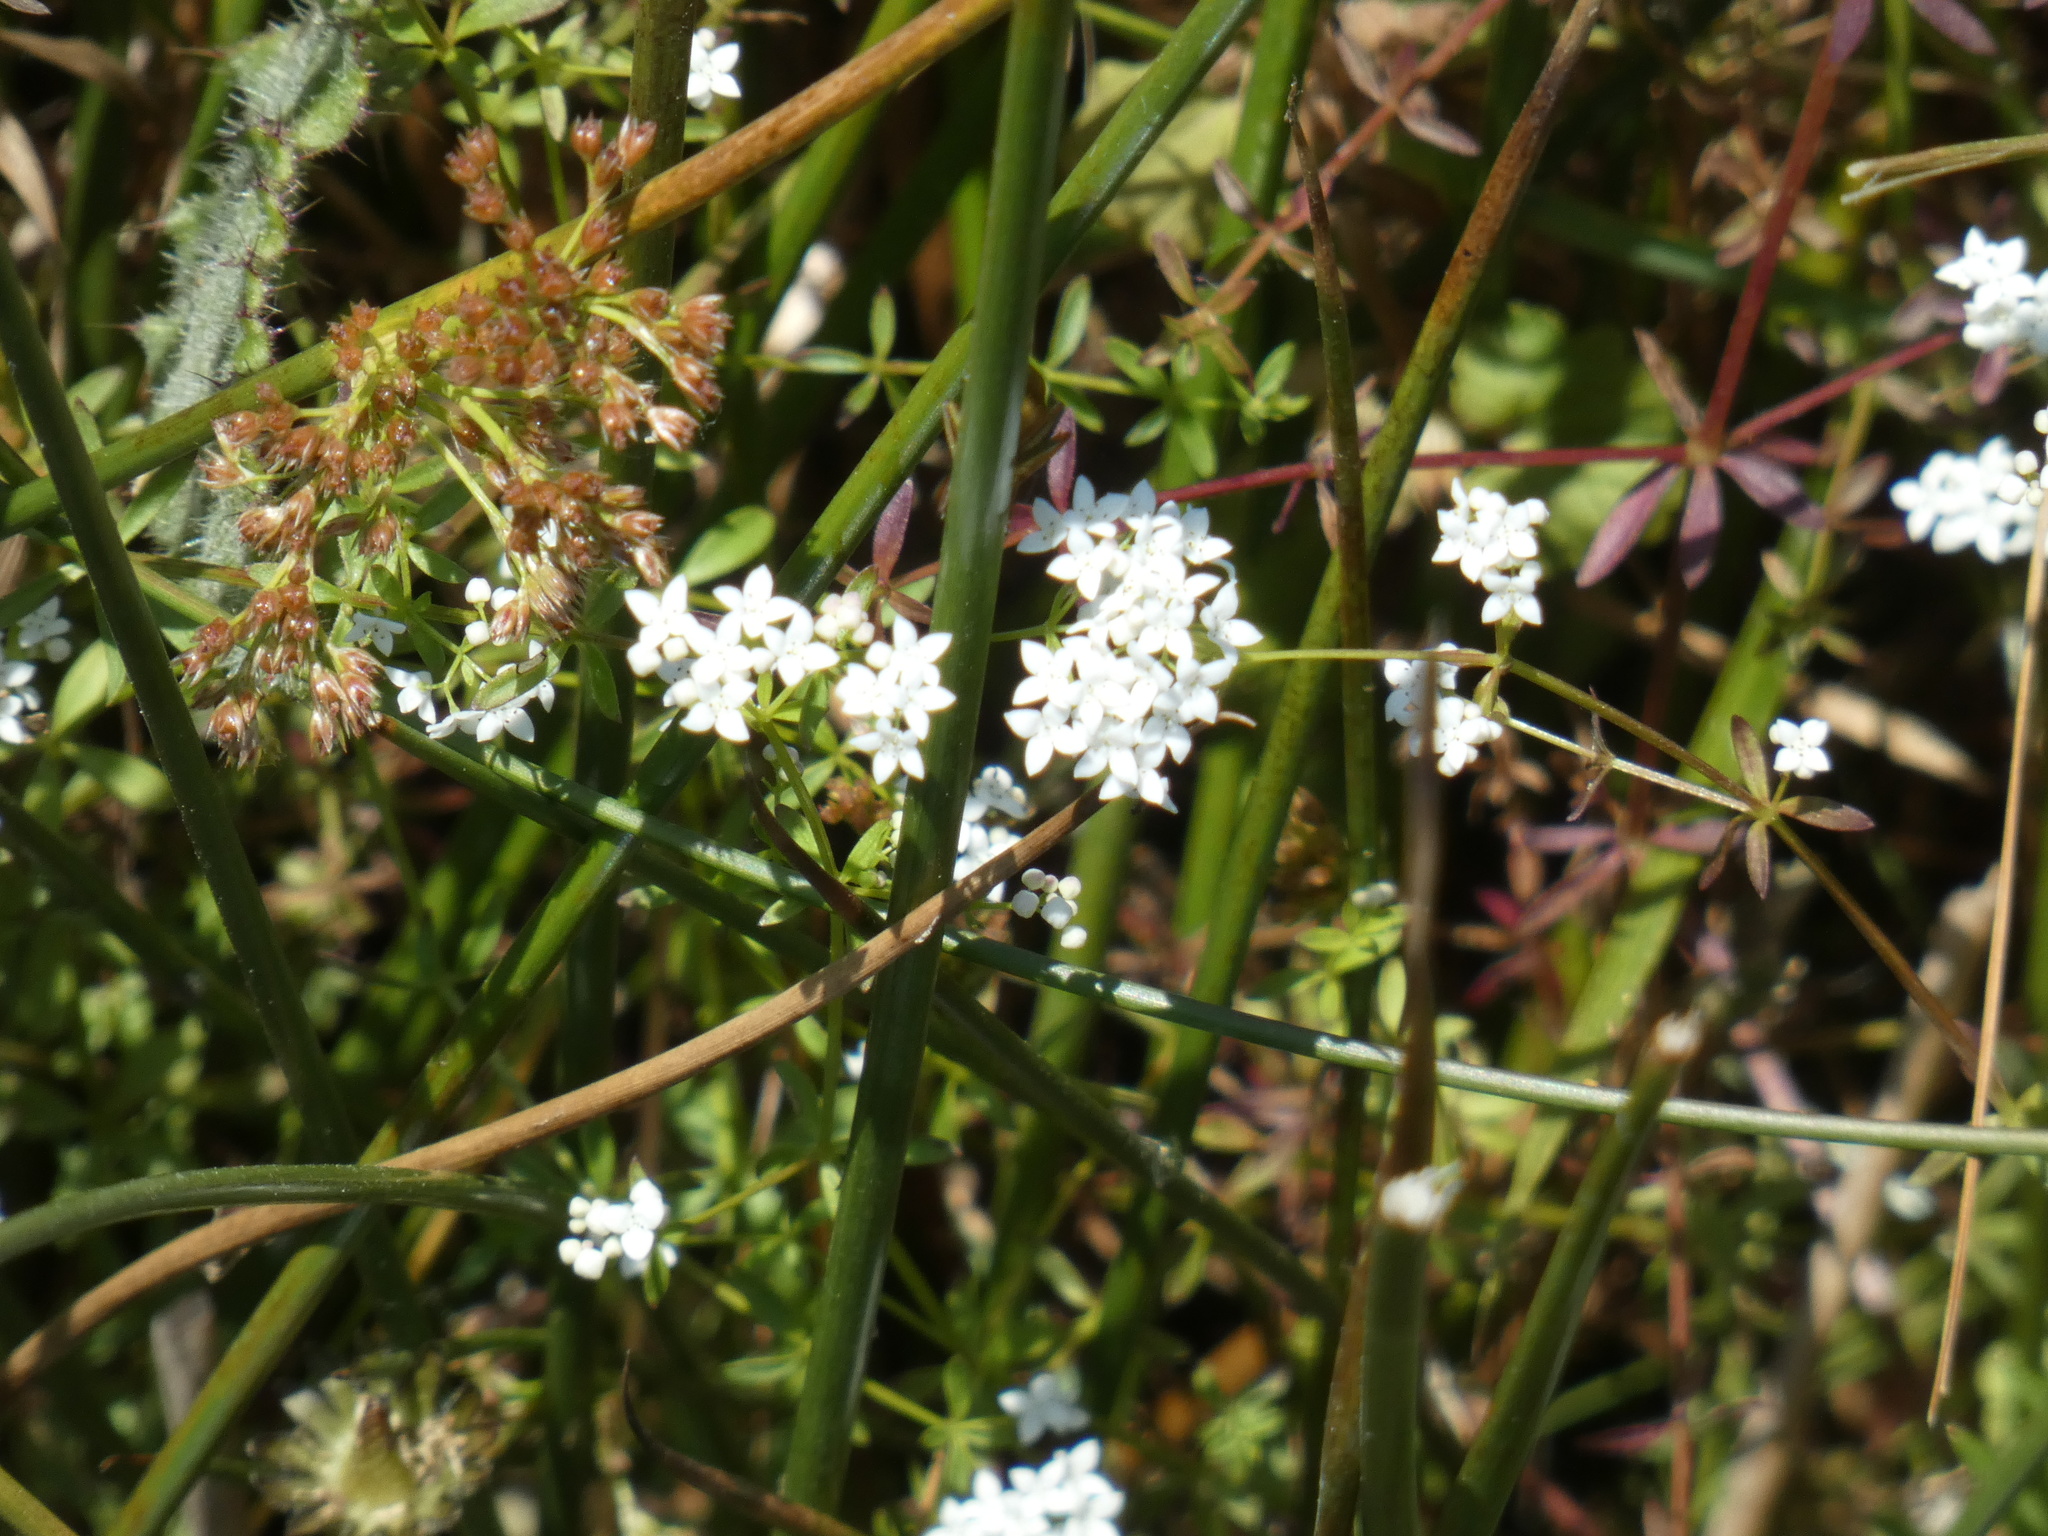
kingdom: Plantae
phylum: Tracheophyta
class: Magnoliopsida
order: Gentianales
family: Rubiaceae
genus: Galium
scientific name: Galium palustre
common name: Common marsh-bedstraw
